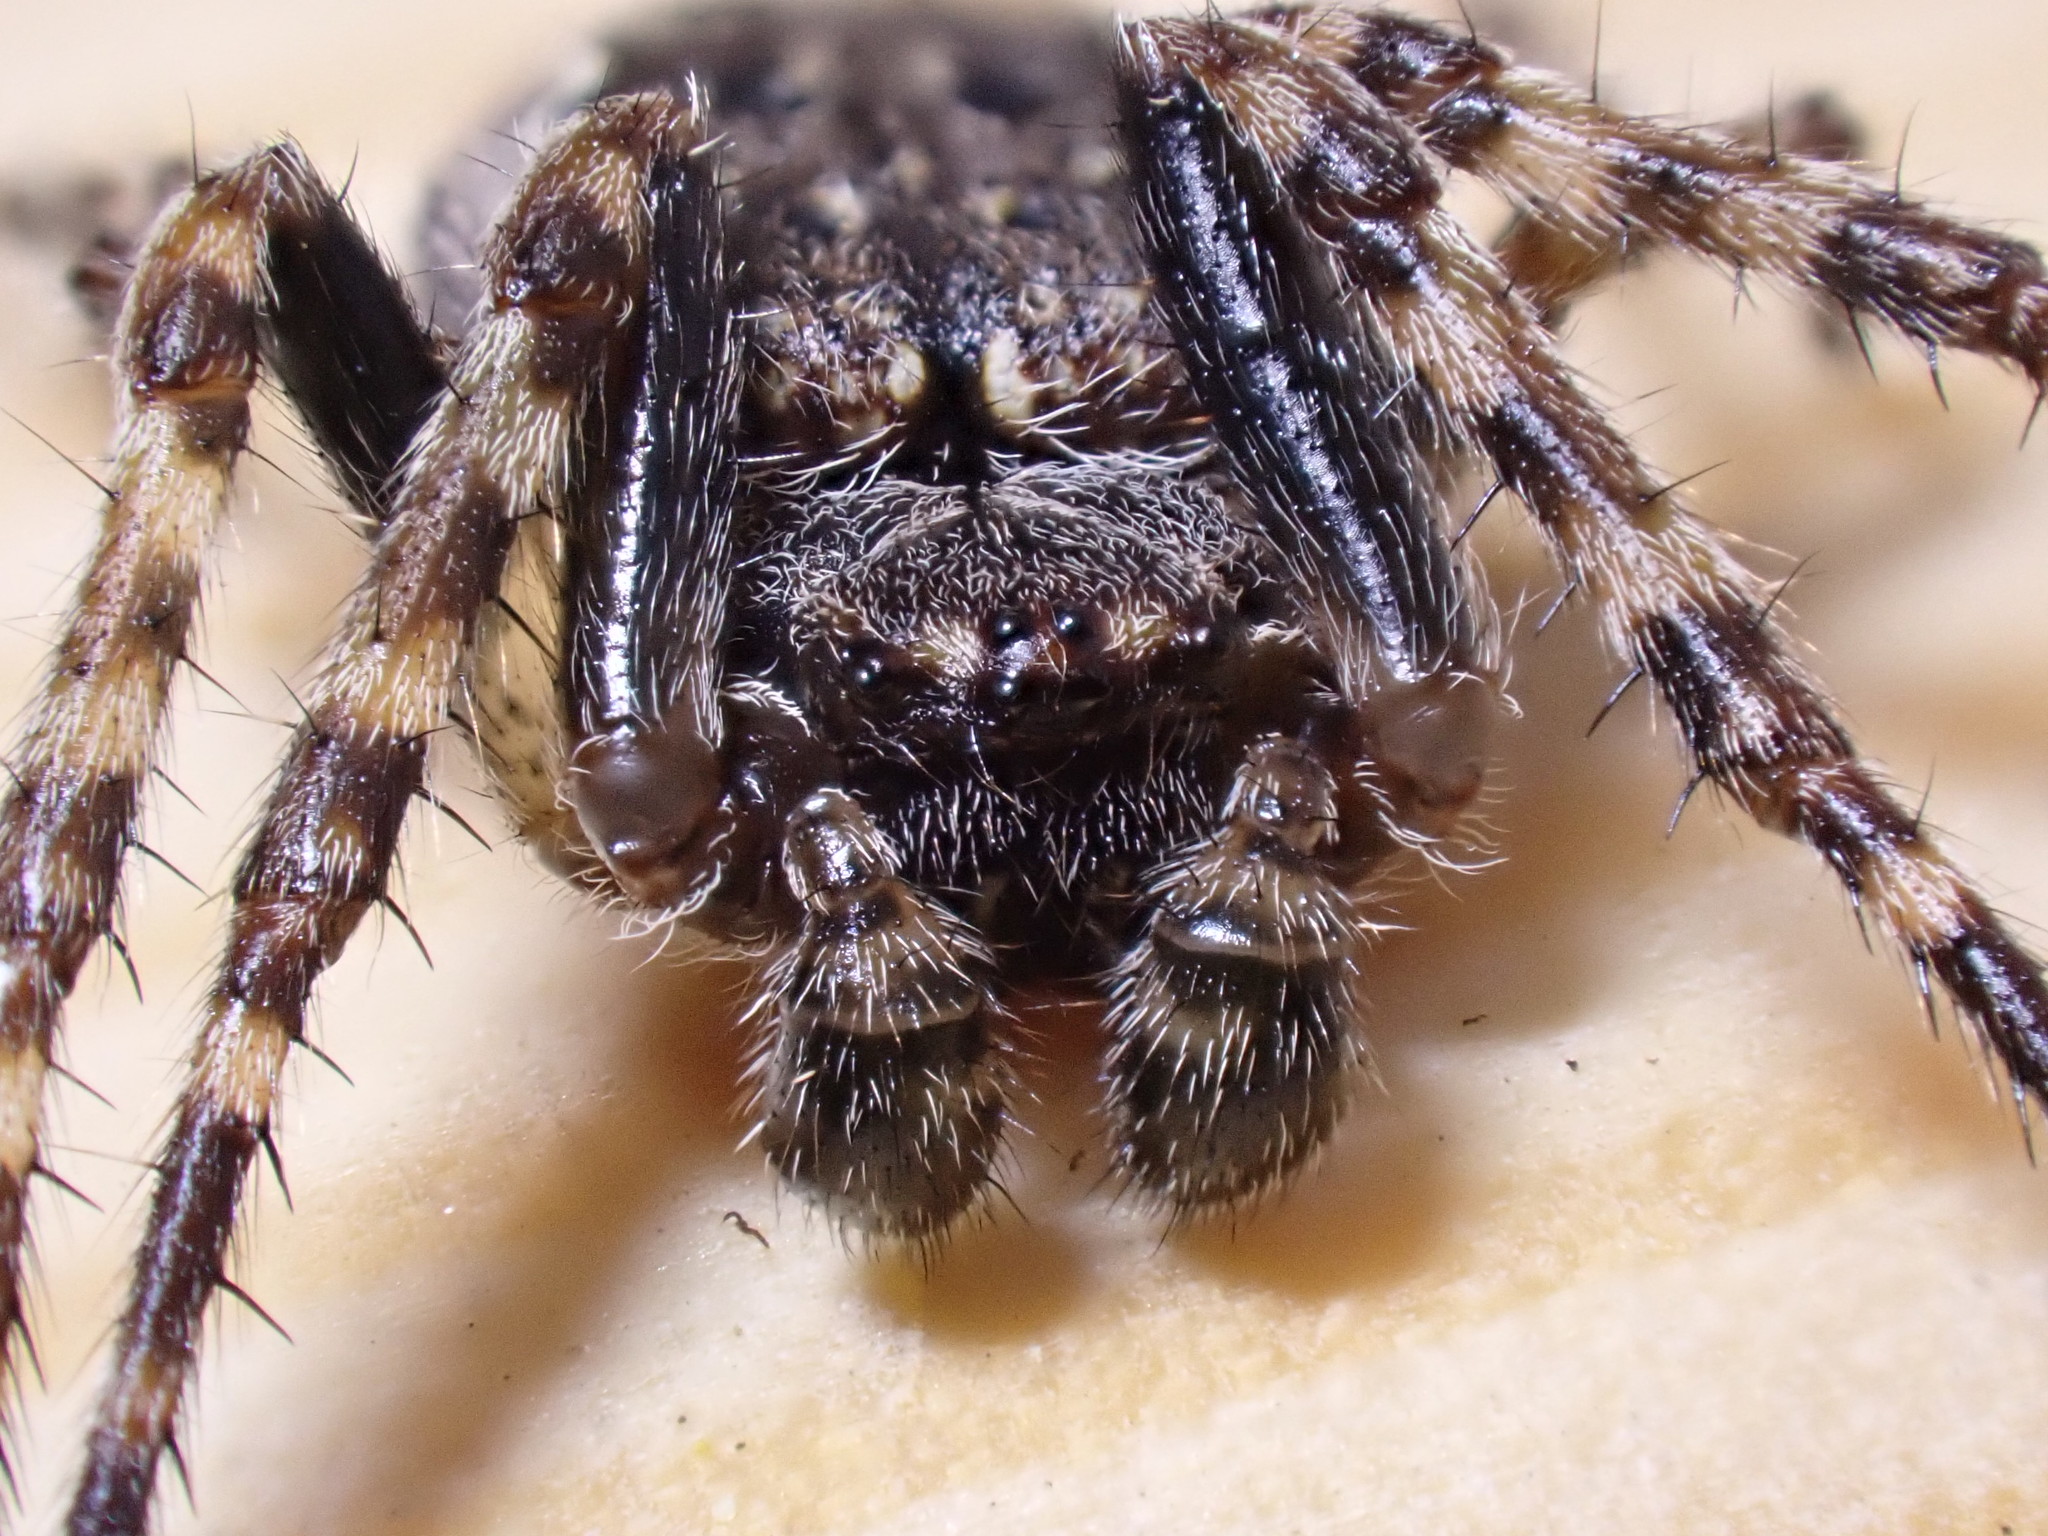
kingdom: Animalia
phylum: Arthropoda
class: Arachnida
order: Araneae
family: Araneidae
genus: Nuctenea
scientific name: Nuctenea umbratica
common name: Toad spider
